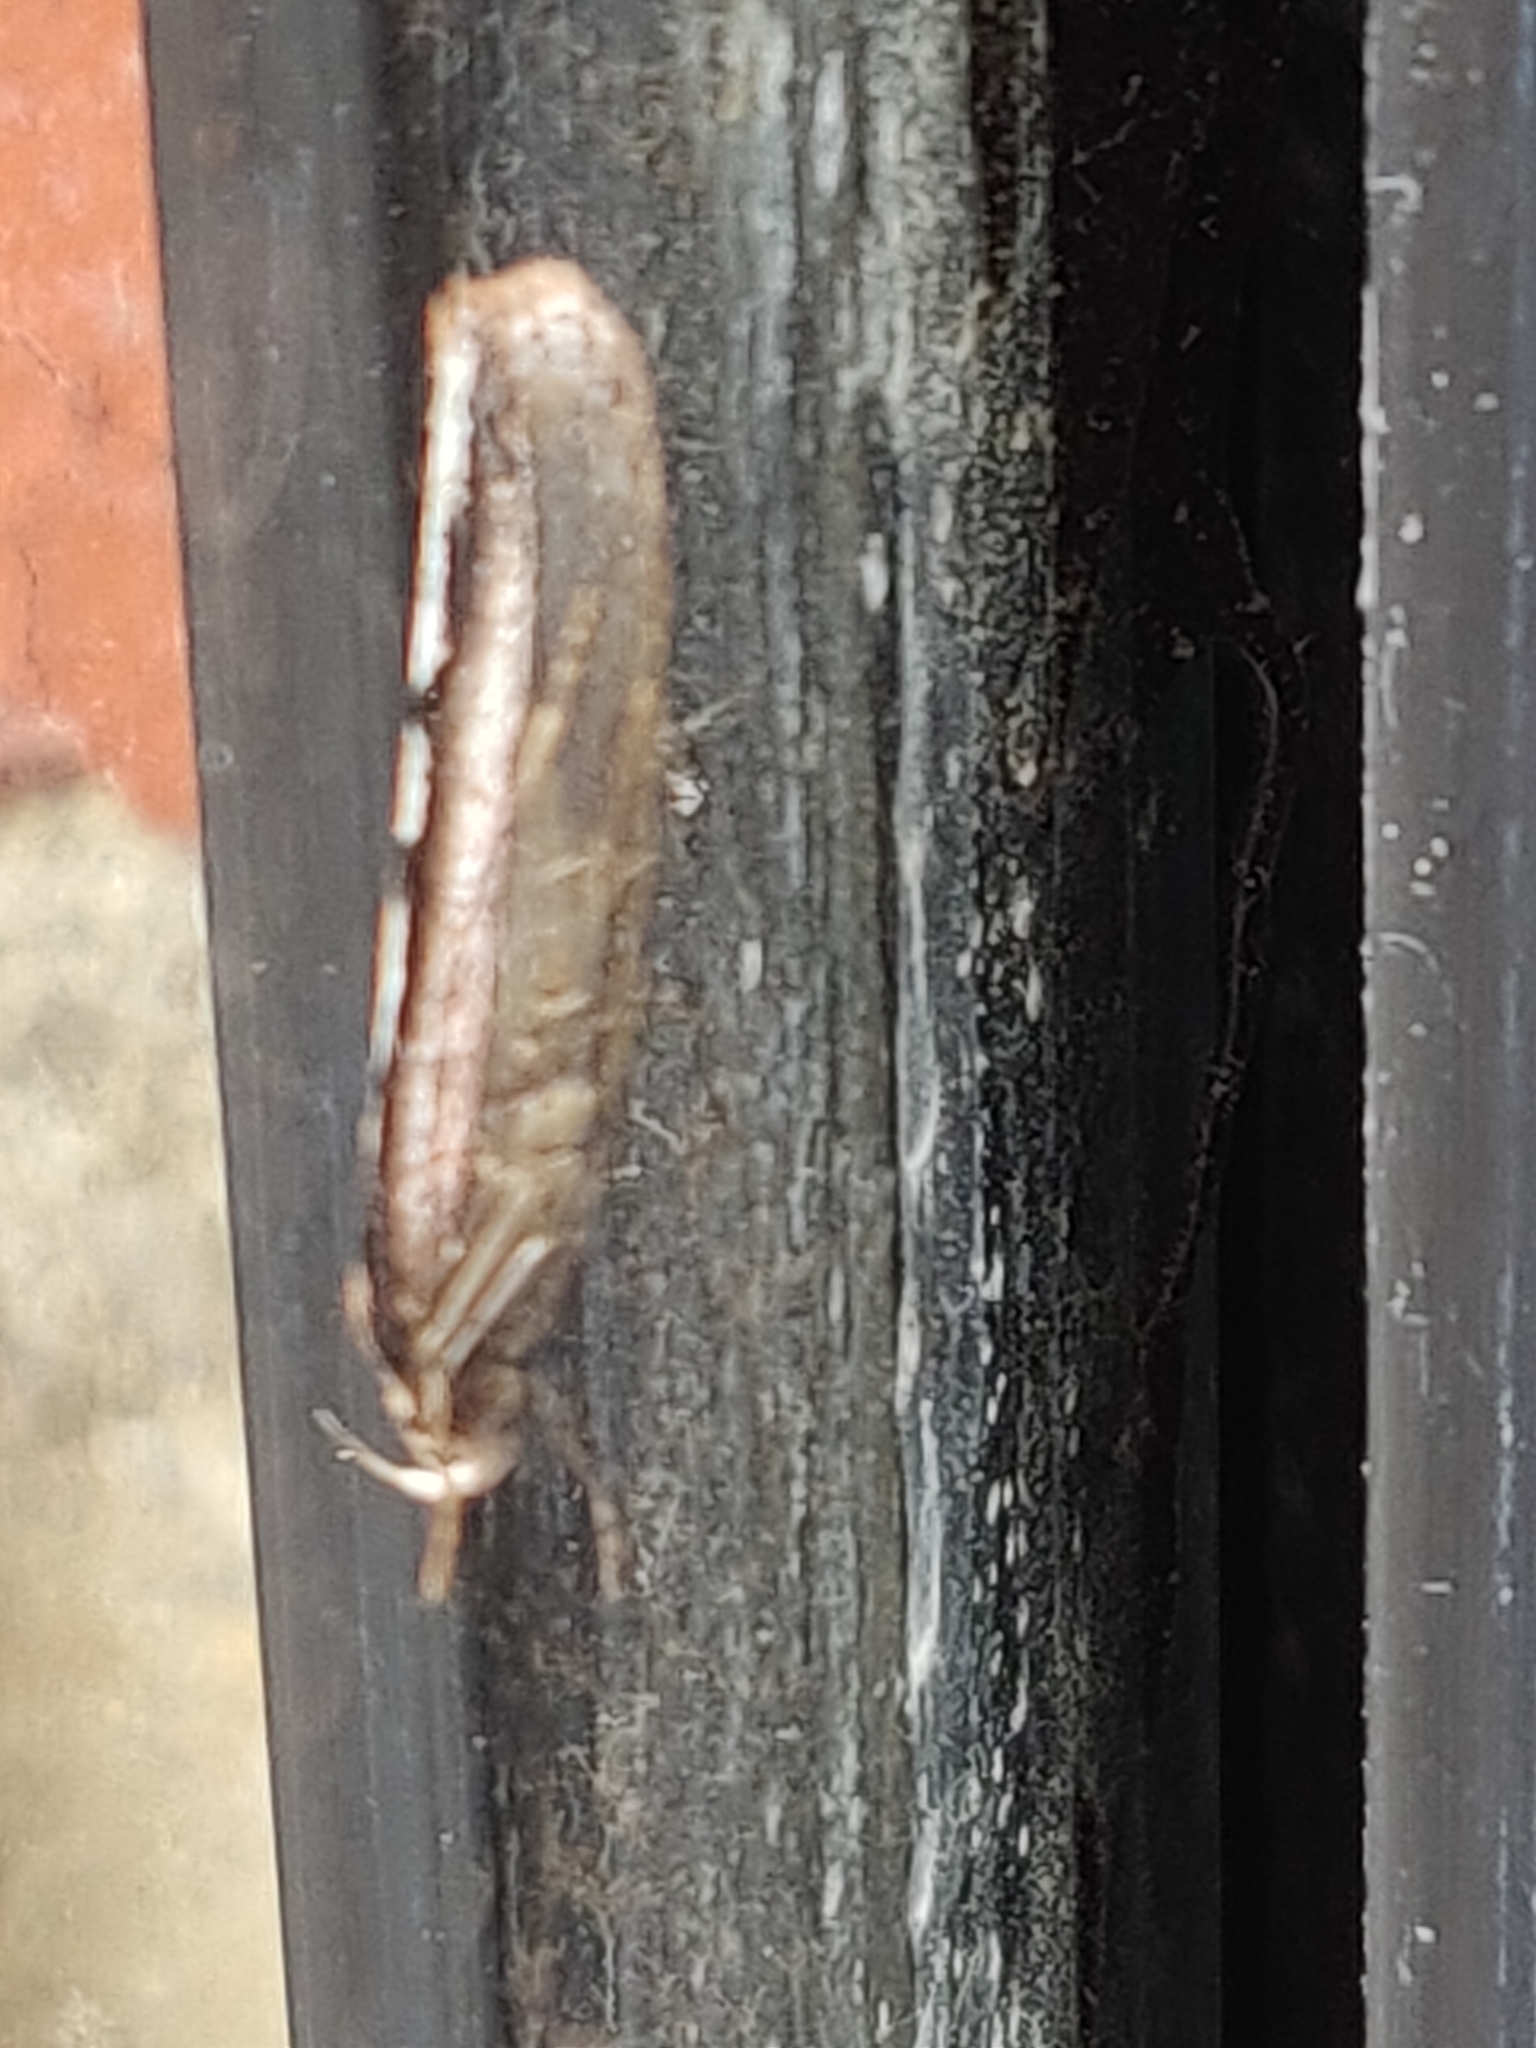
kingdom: Animalia
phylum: Arthropoda
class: Insecta
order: Lepidoptera
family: Oecophoridae
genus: Leptocroca
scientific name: Leptocroca sanguinolenta
